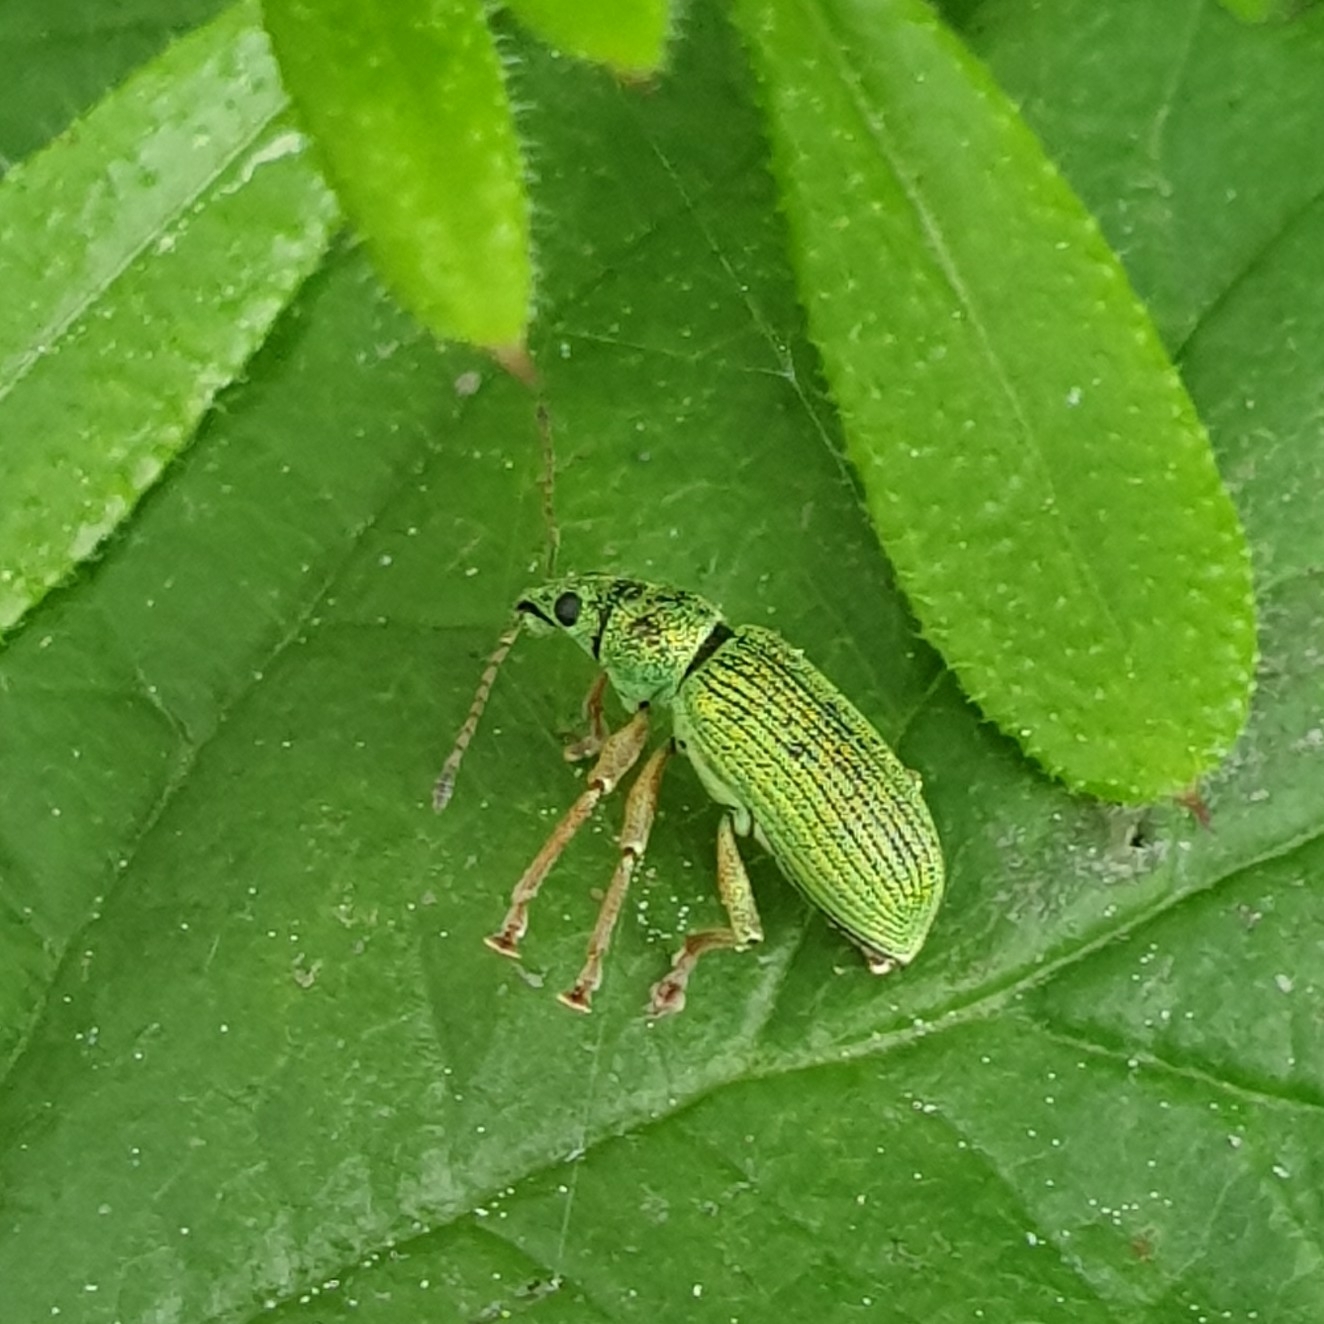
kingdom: Animalia
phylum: Arthropoda
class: Insecta
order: Coleoptera
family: Curculionidae
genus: Polydrusus
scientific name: Polydrusus formosus
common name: Weevil
